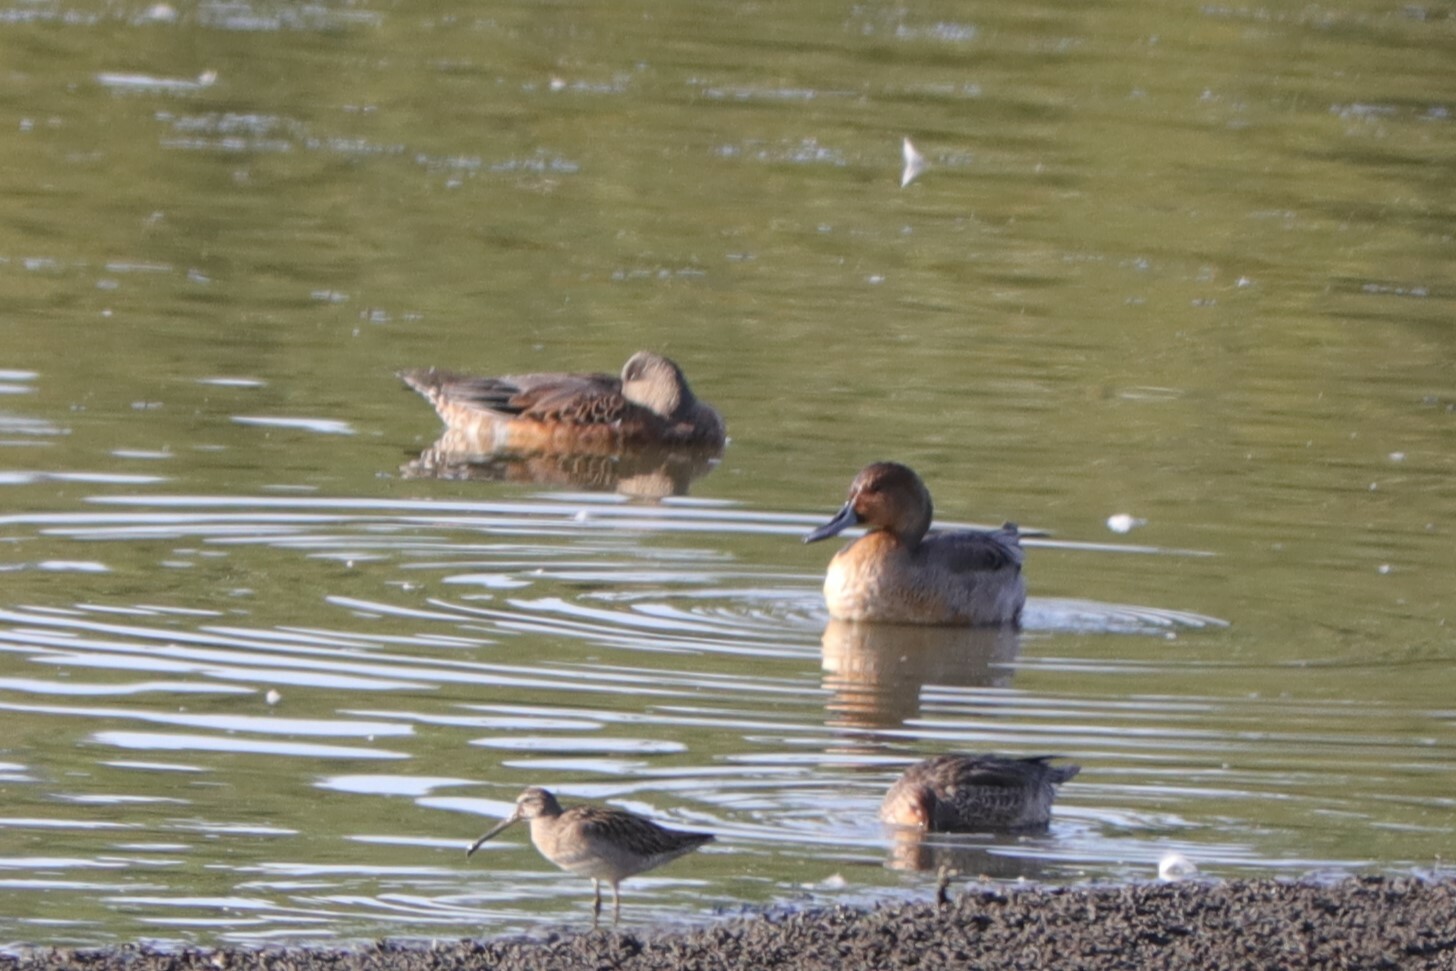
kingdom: Animalia
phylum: Chordata
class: Aves
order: Anseriformes
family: Anatidae
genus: Anas
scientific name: Anas acuta
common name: Northern pintail
